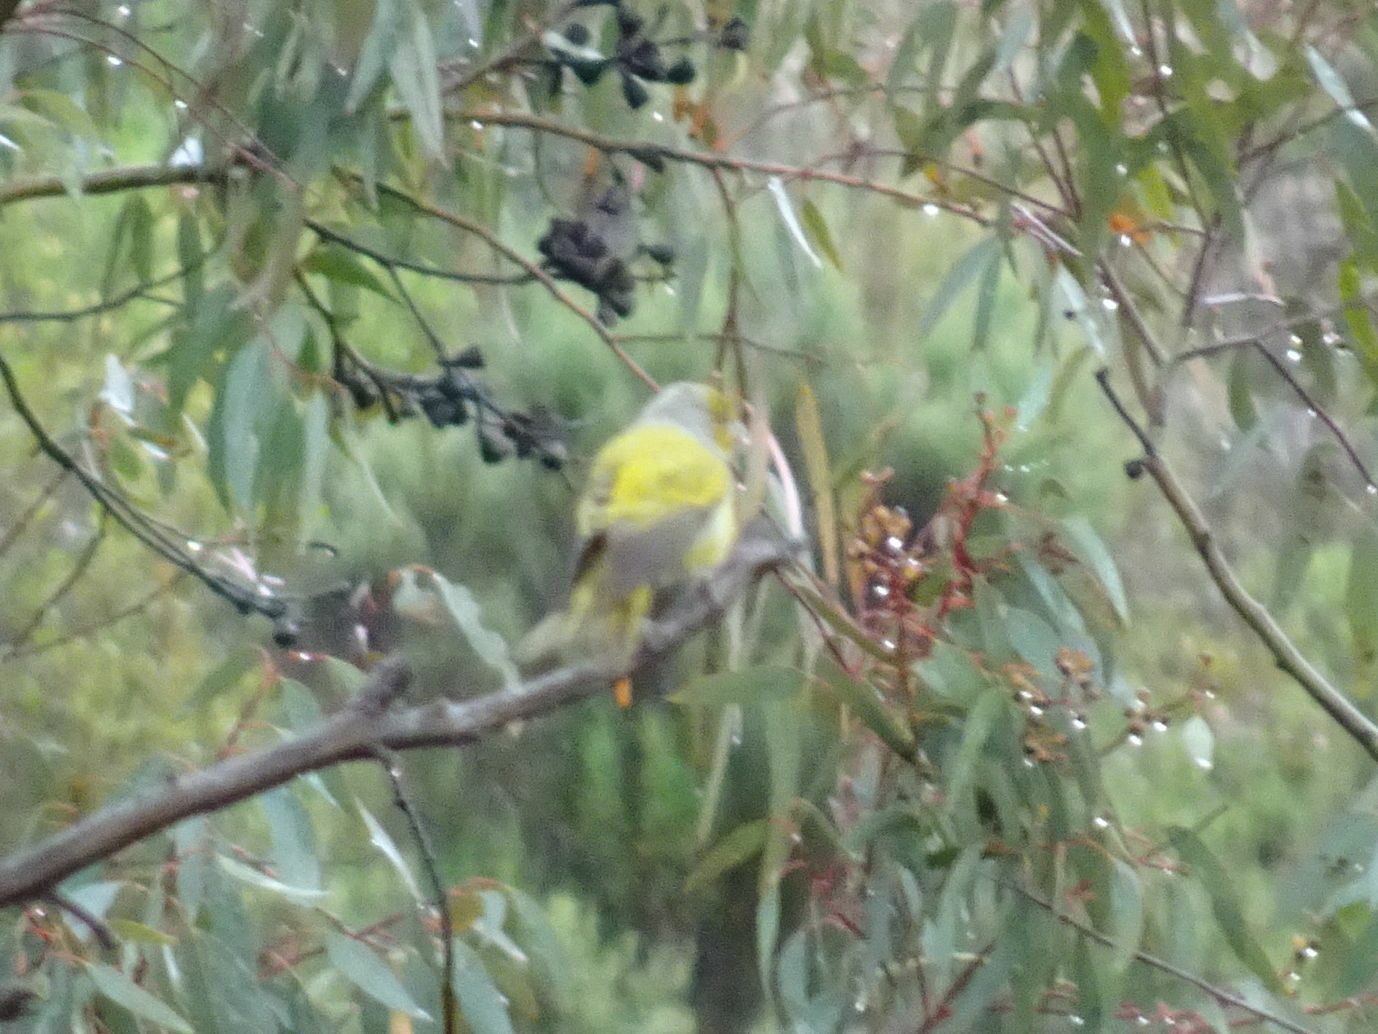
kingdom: Animalia
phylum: Chordata
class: Aves
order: Passeriformes
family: Fringillidae
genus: Serinus
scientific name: Serinus canicollis
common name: Cape canary
